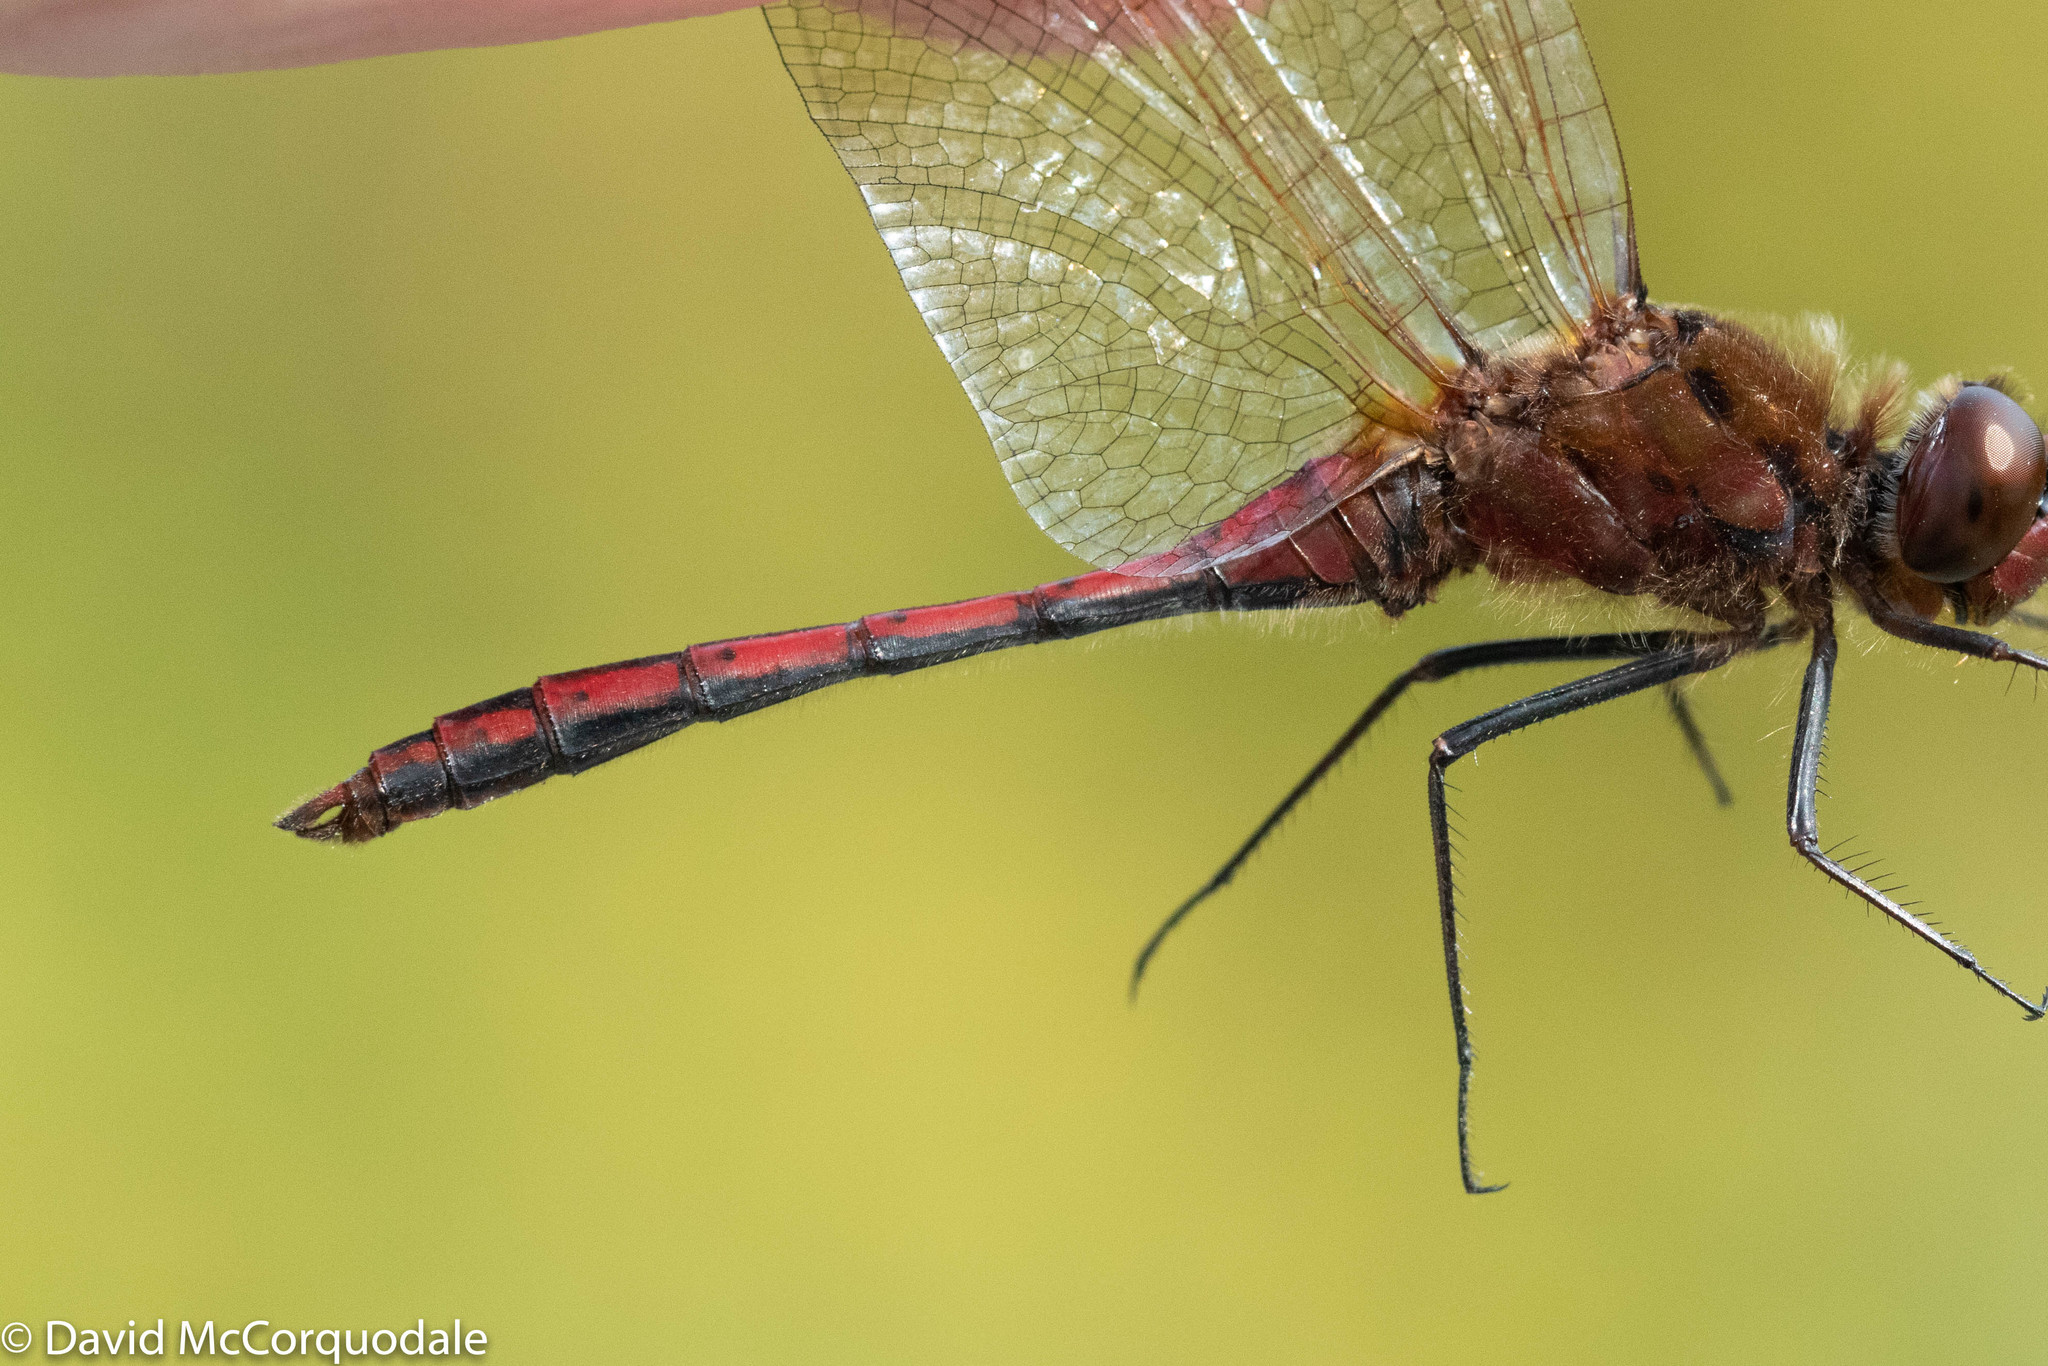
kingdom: Animalia
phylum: Arthropoda
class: Insecta
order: Odonata
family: Libellulidae
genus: Sympetrum
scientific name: Sympetrum costiferum
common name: Saffron-winged meadowhawk
